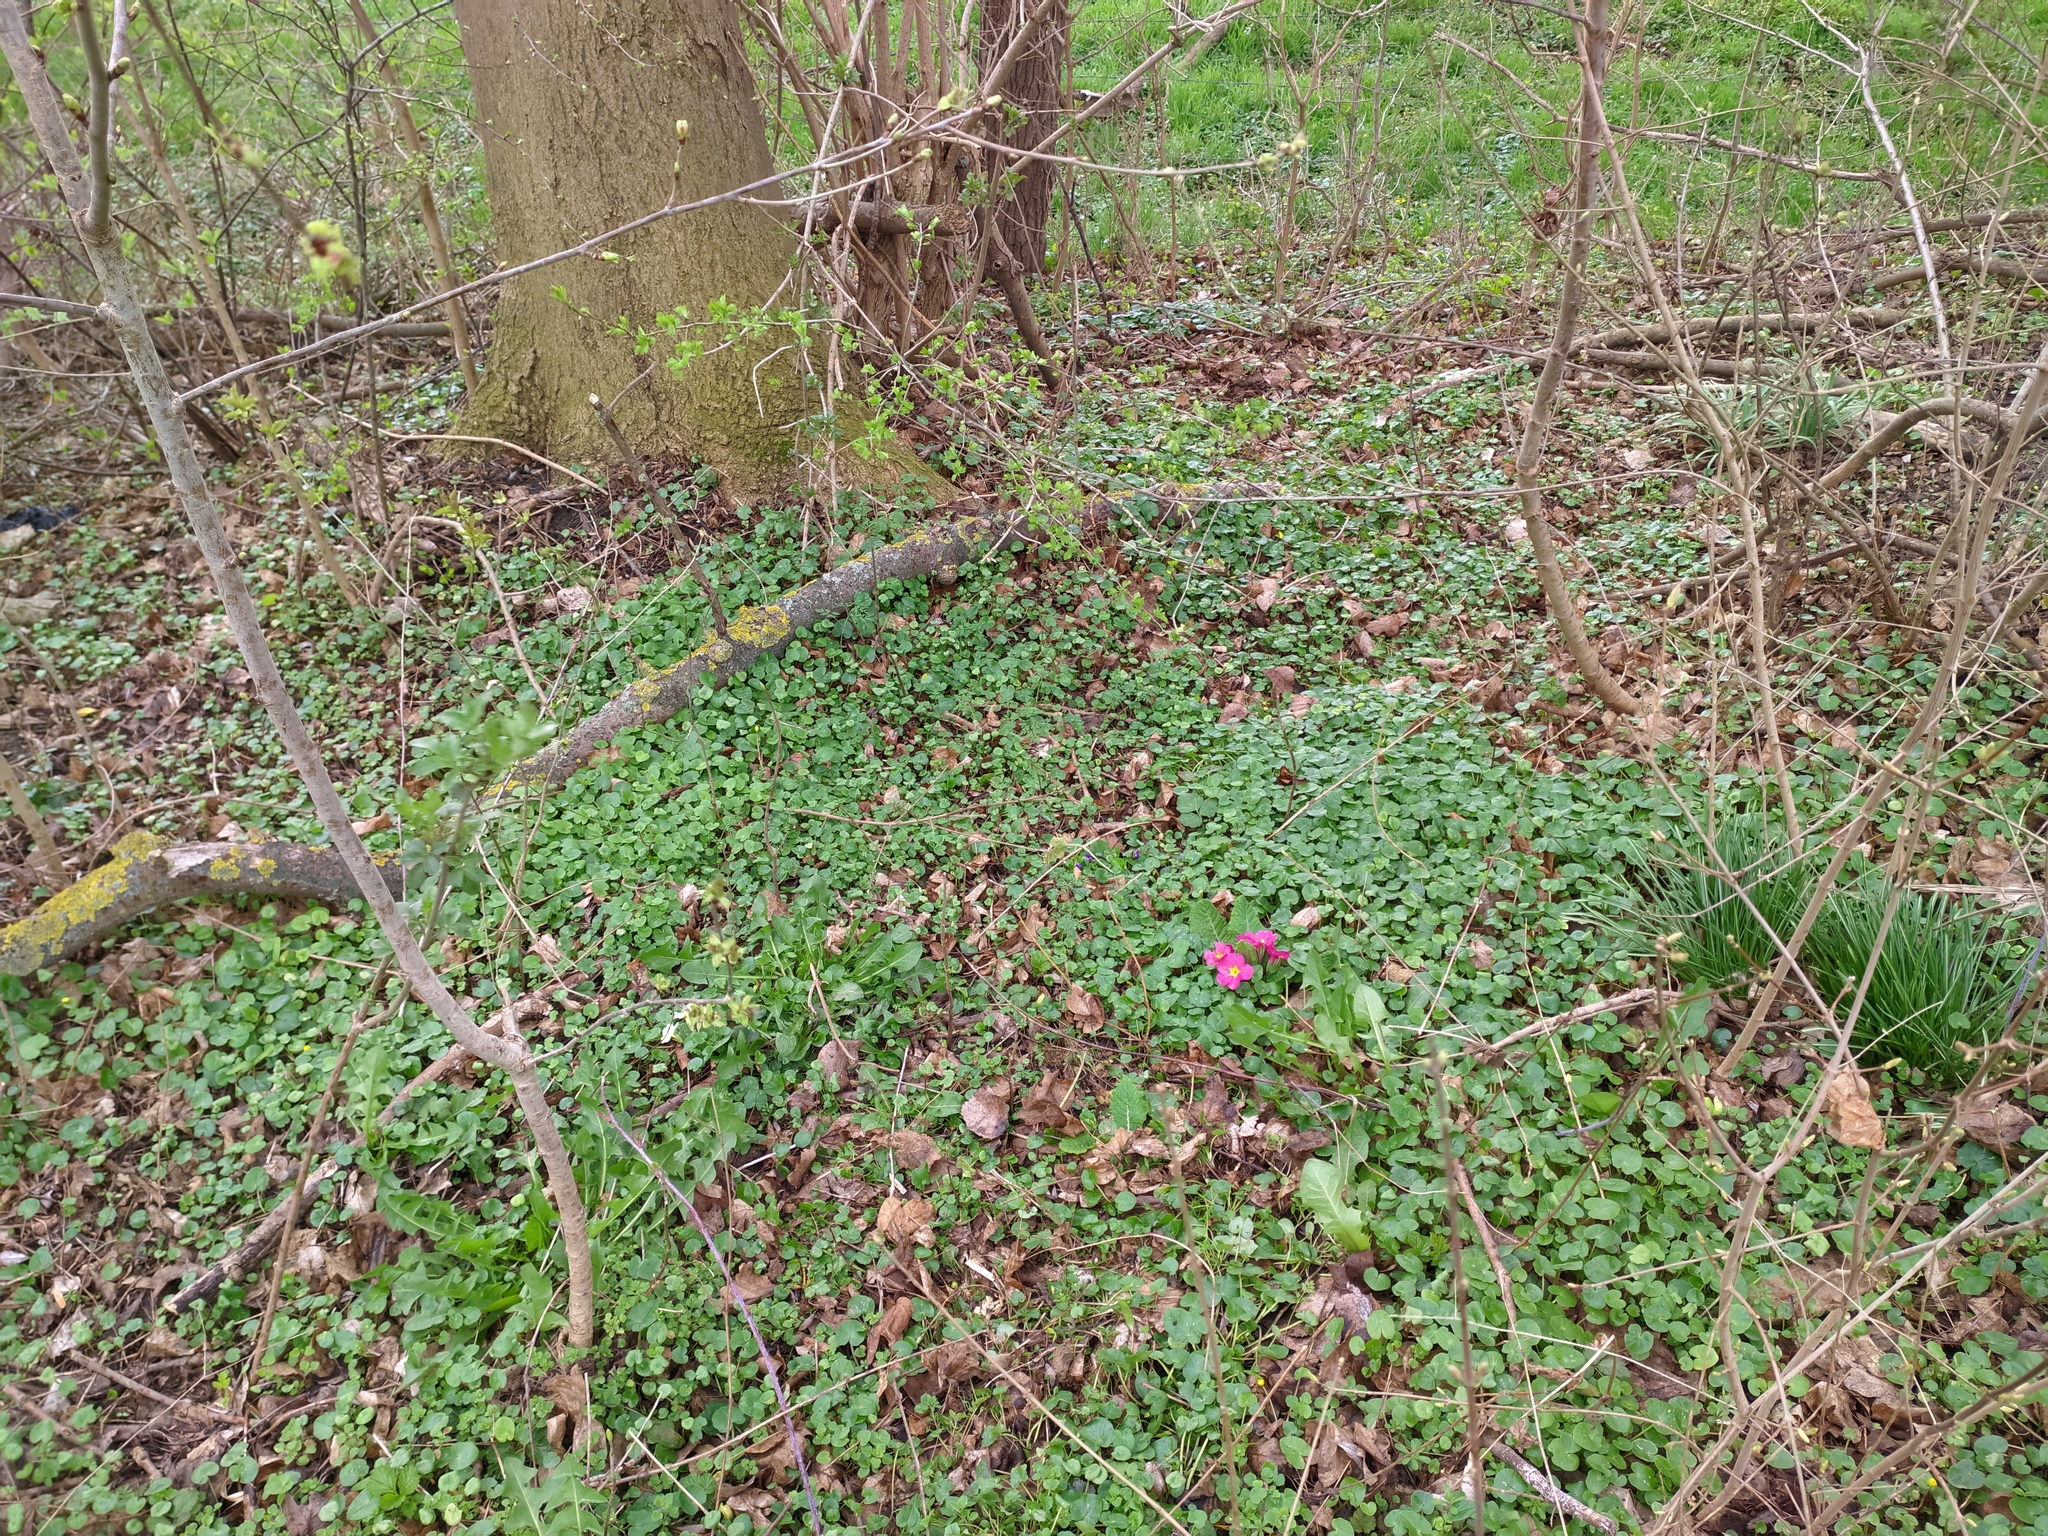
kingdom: Plantae
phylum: Tracheophyta
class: Magnoliopsida
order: Ericales
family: Primulaceae
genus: Primula
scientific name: Primula vulgaris
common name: Primrose
